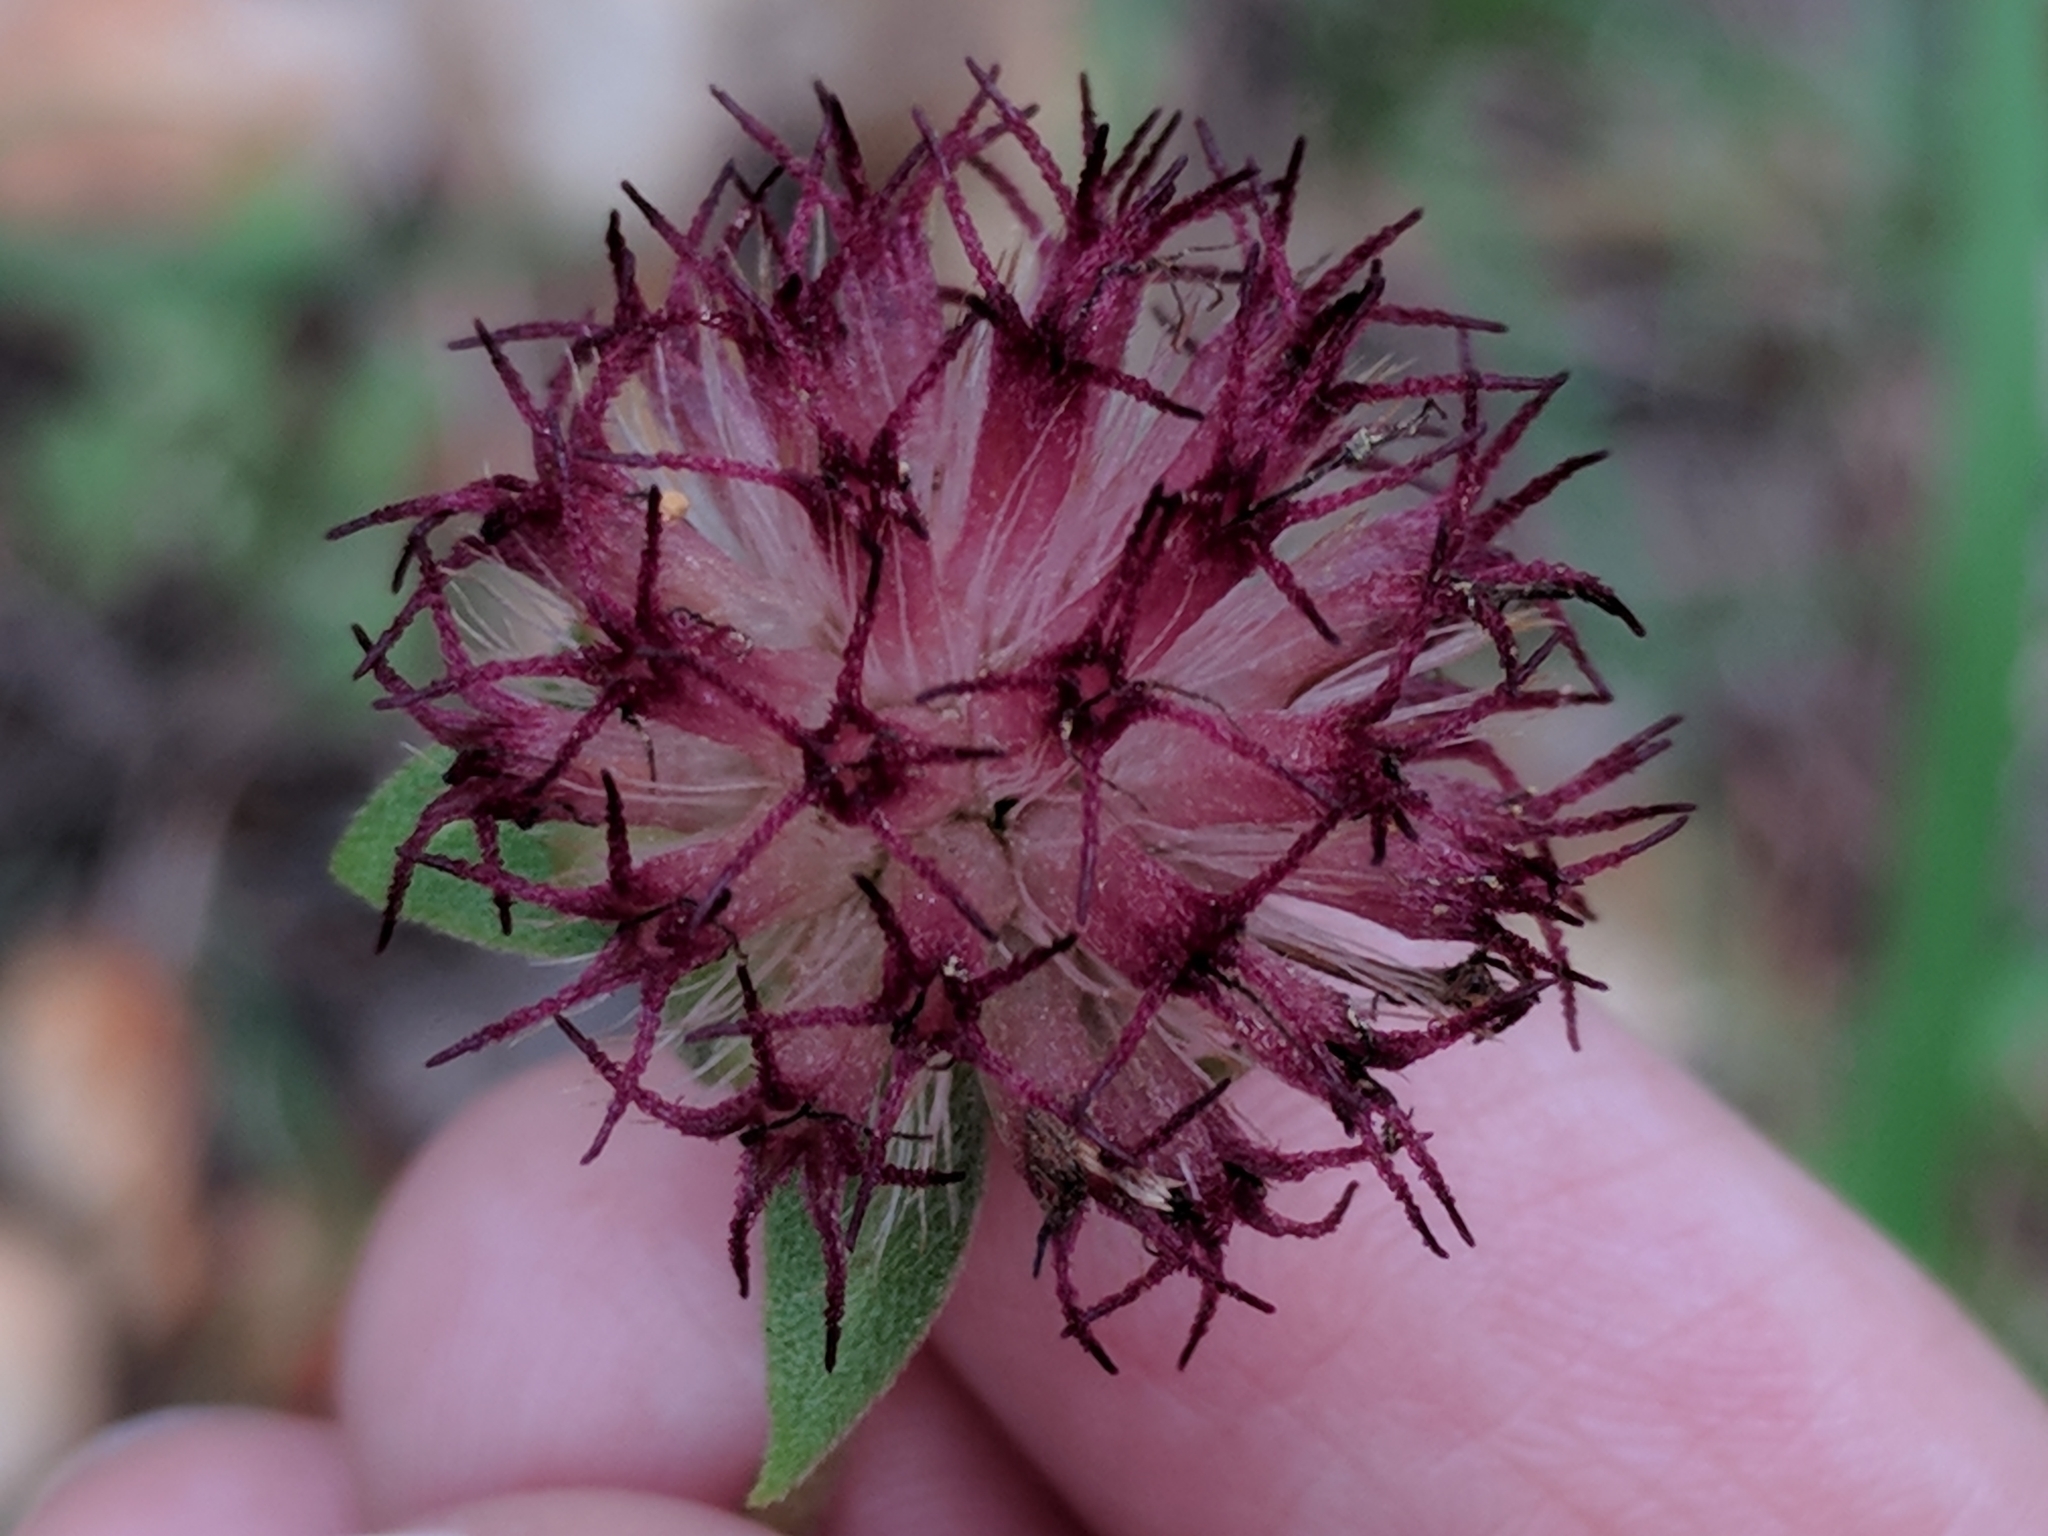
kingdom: Plantae
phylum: Tracheophyta
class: Magnoliopsida
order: Asterales
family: Asteraceae
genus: Gaillardia
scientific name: Gaillardia aestivalis
